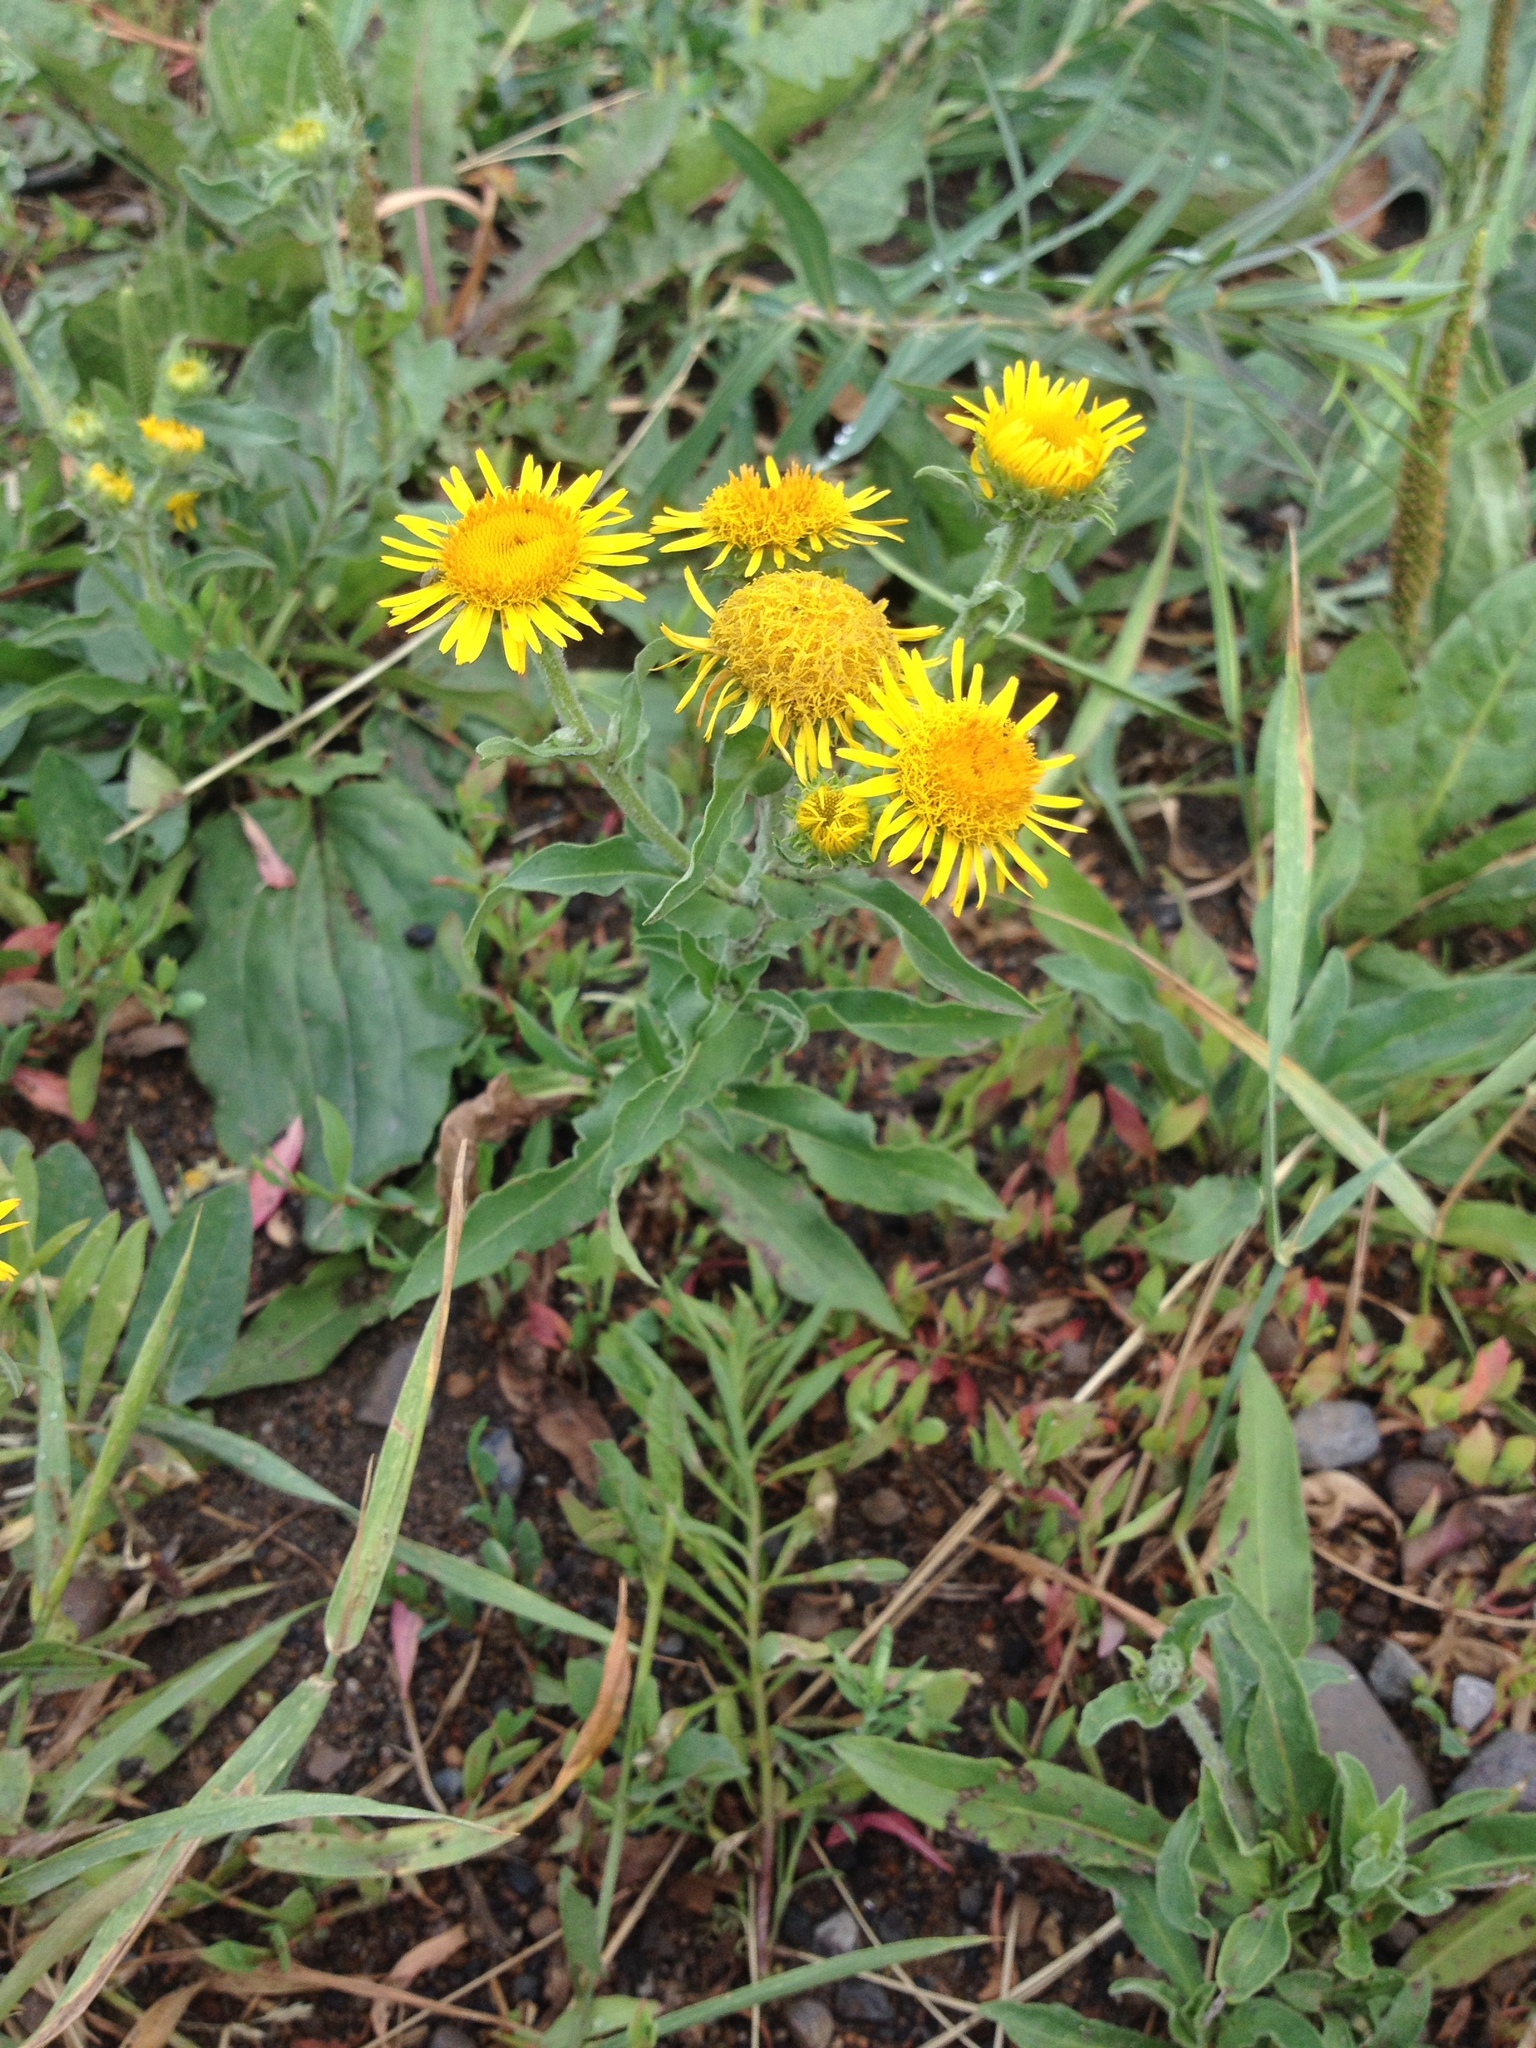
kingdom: Plantae
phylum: Tracheophyta
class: Magnoliopsida
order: Asterales
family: Asteraceae
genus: Pentanema
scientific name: Pentanema britannicum
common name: British elecampane
